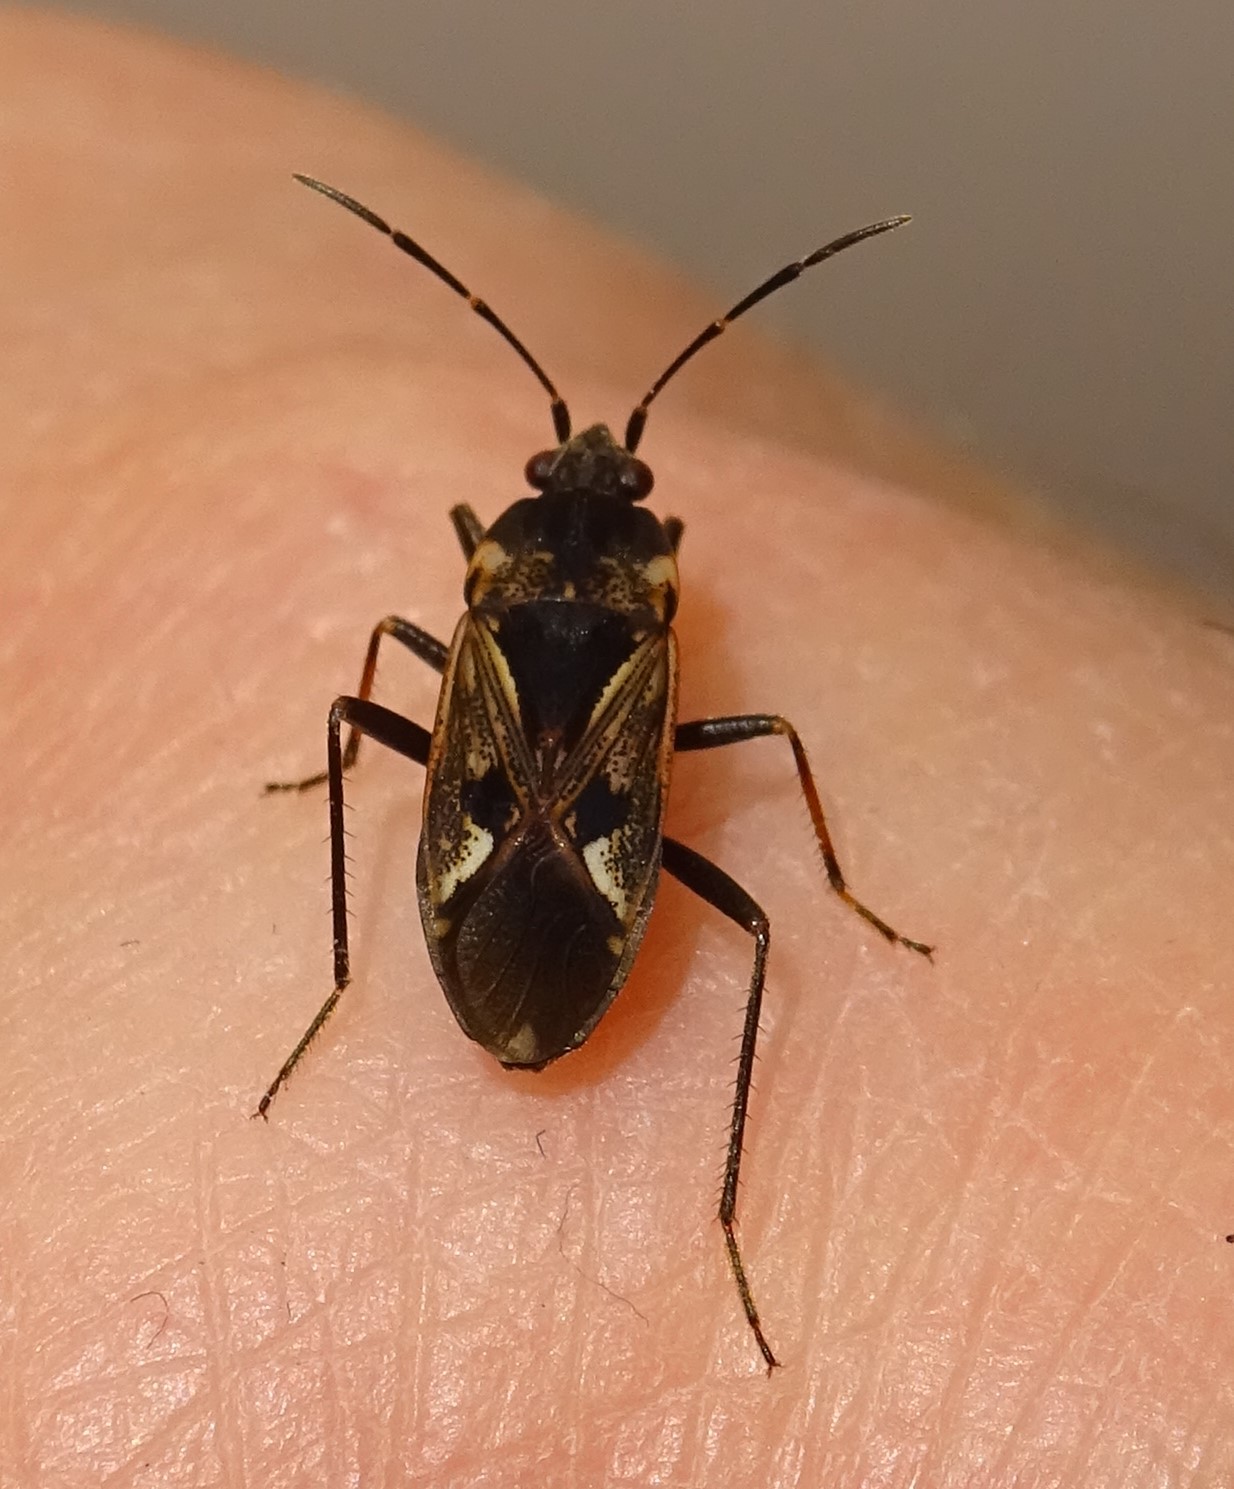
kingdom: Animalia
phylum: Arthropoda
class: Insecta
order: Hemiptera
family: Rhyparochromidae
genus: Rhyparochromus
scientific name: Rhyparochromus vulgaris
